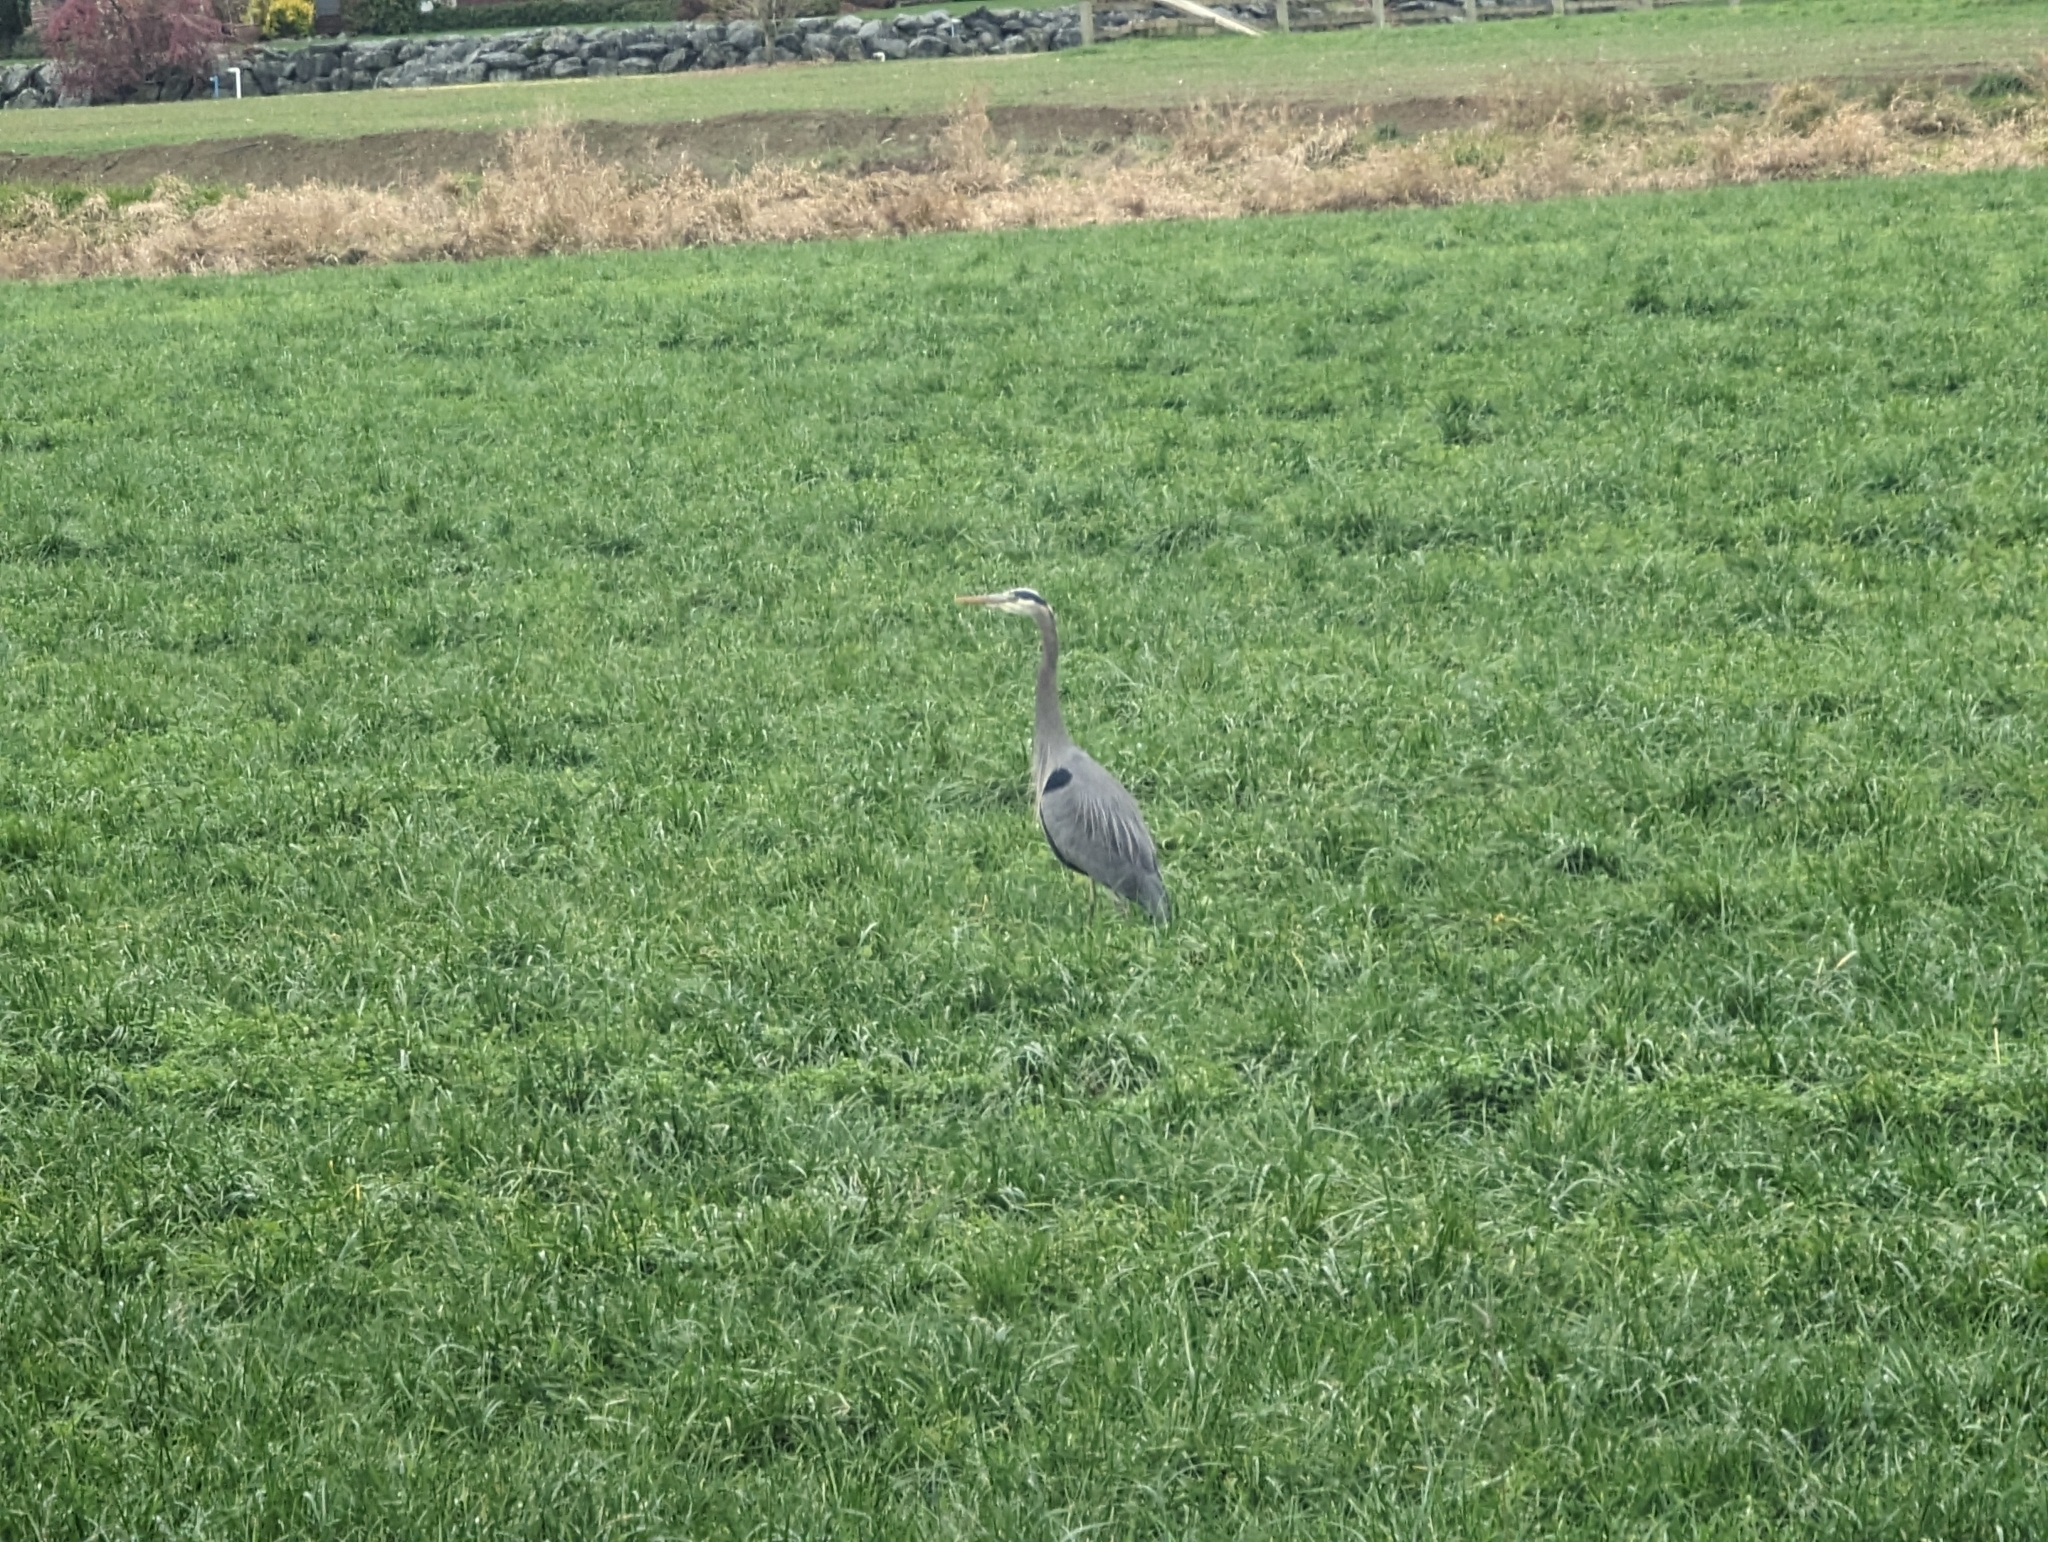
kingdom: Animalia
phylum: Chordata
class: Aves
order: Pelecaniformes
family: Ardeidae
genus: Ardea
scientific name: Ardea herodias
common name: Great blue heron
